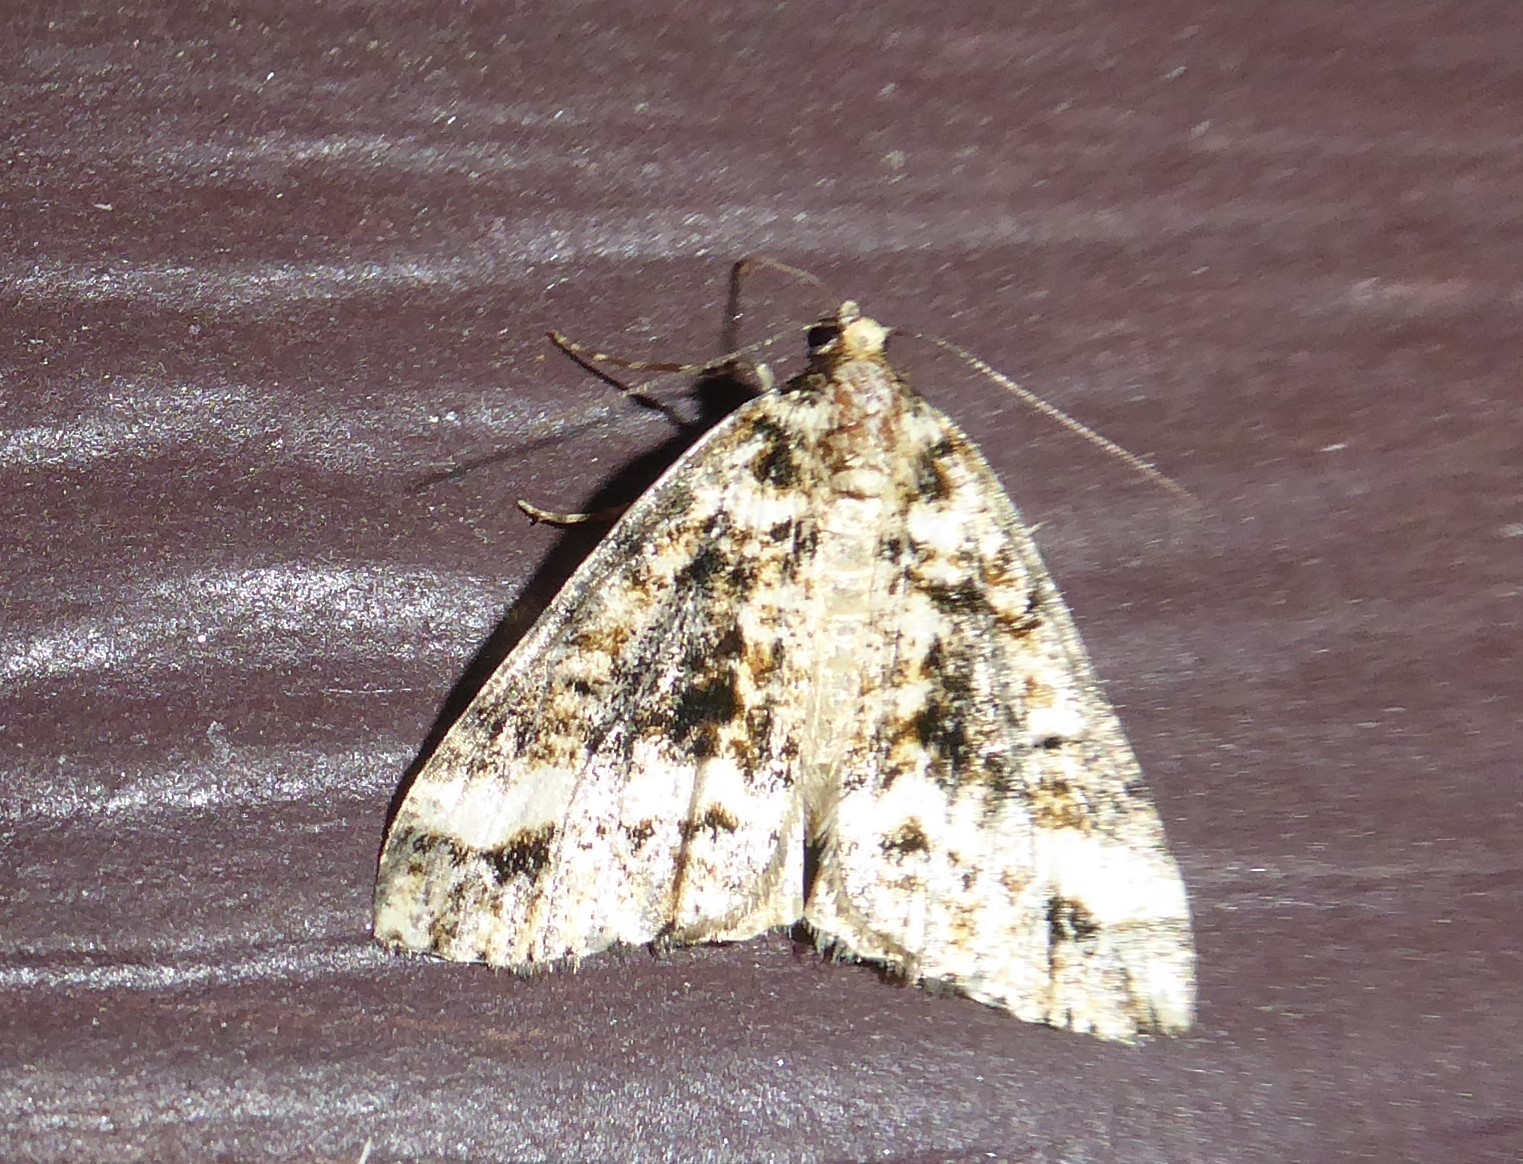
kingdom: Animalia
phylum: Arthropoda
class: Insecta
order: Lepidoptera
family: Geometridae
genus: Pseudocoremia
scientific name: Pseudocoremia leucelaea
